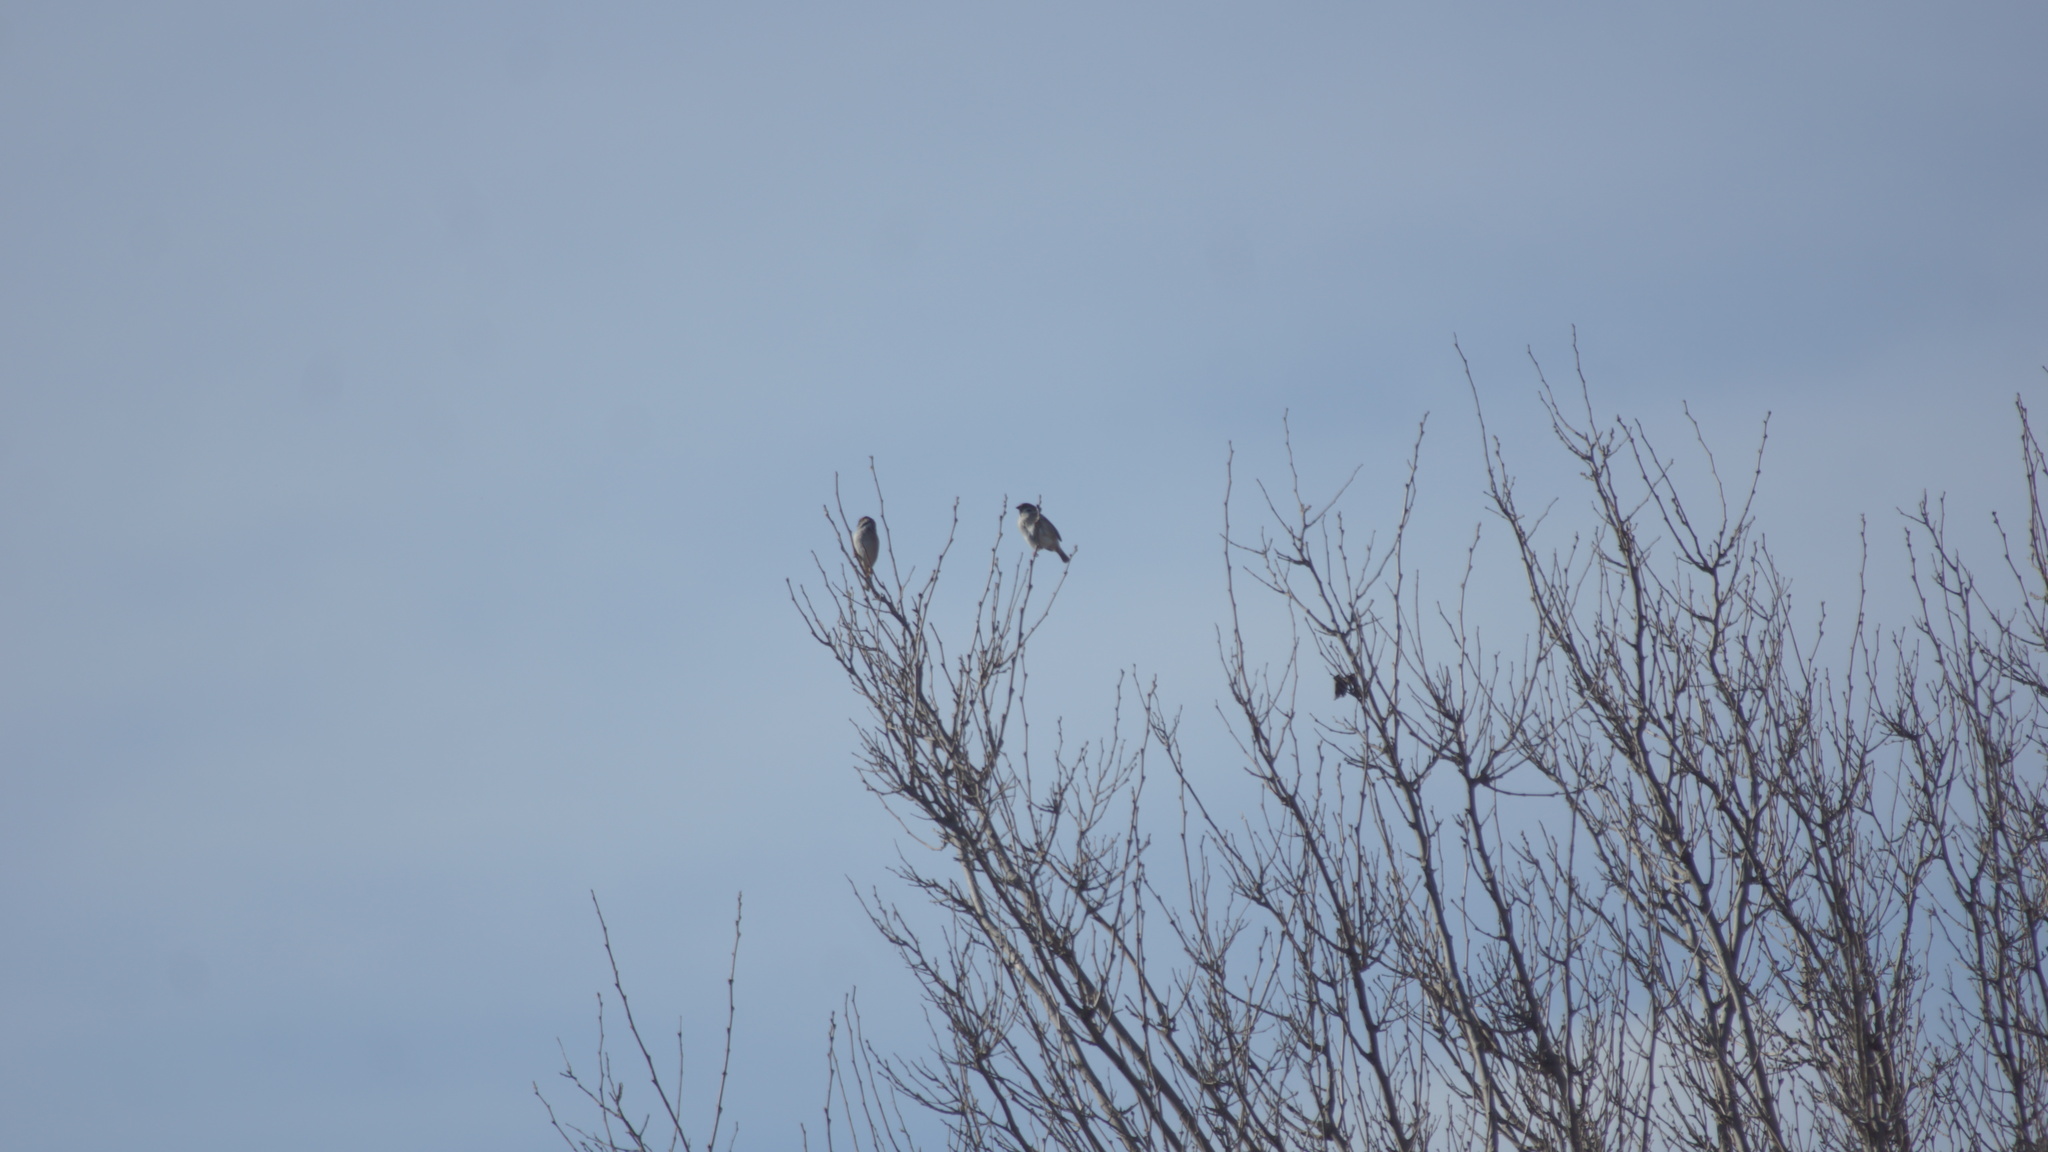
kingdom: Animalia
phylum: Chordata
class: Aves
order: Passeriformes
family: Passeridae
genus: Passer
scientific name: Passer montanus
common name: Eurasian tree sparrow
